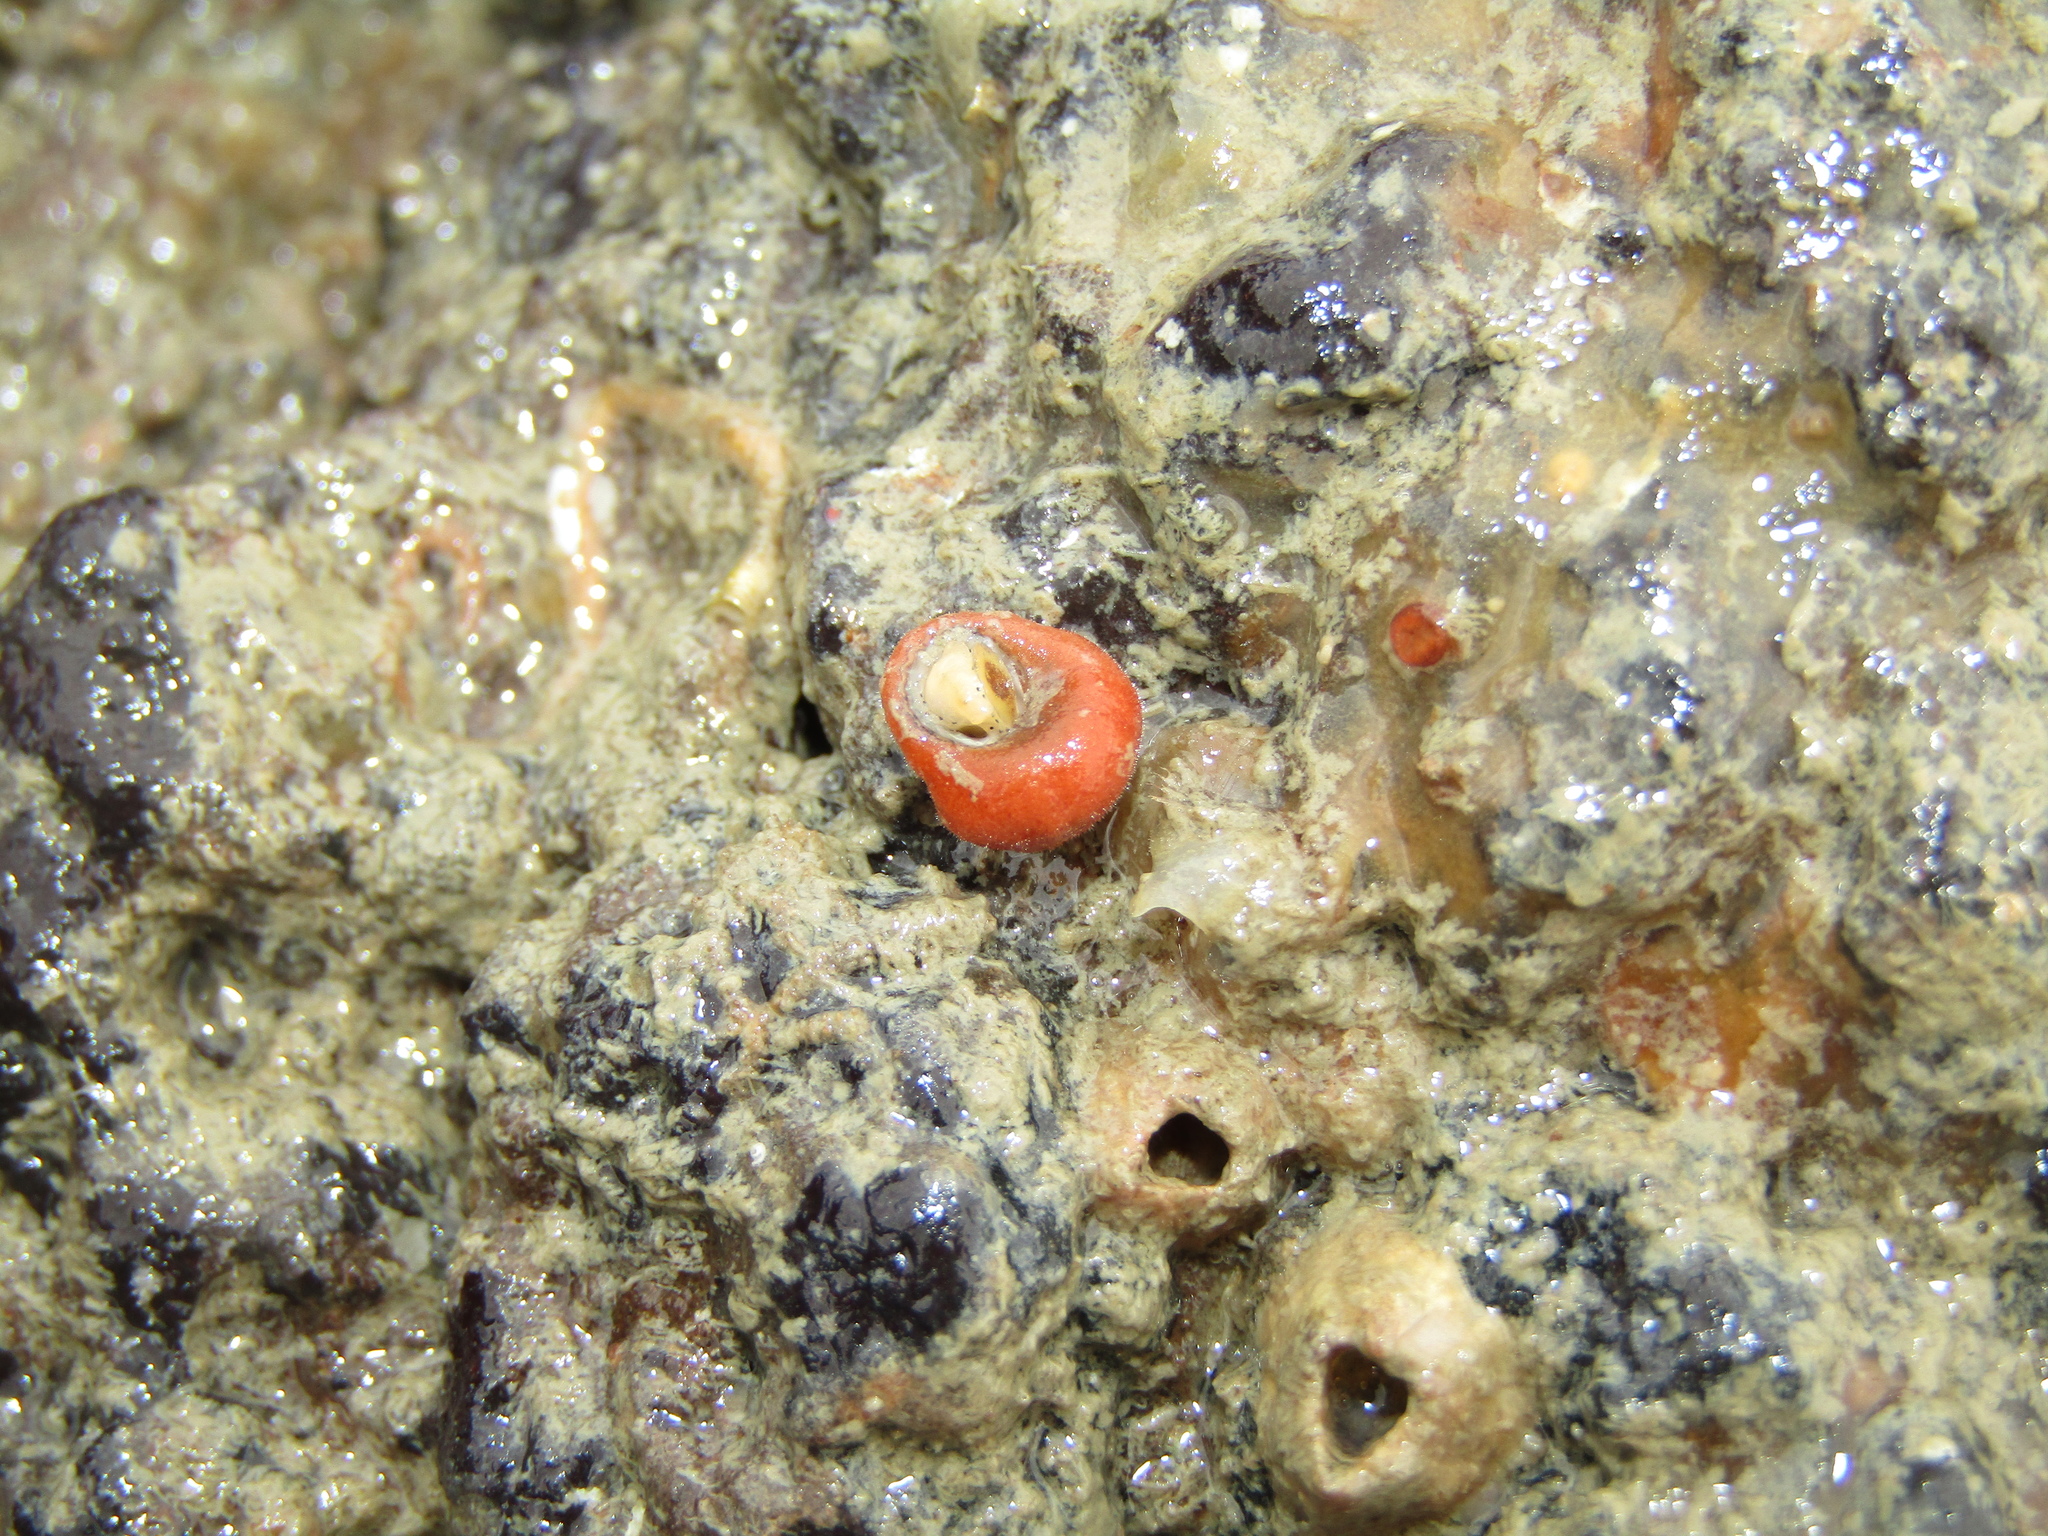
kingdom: Animalia
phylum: Mollusca
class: Gastropoda
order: Seguenziida
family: Chilodontaidae
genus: Herpetopoma
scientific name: Herpetopoma bellum
